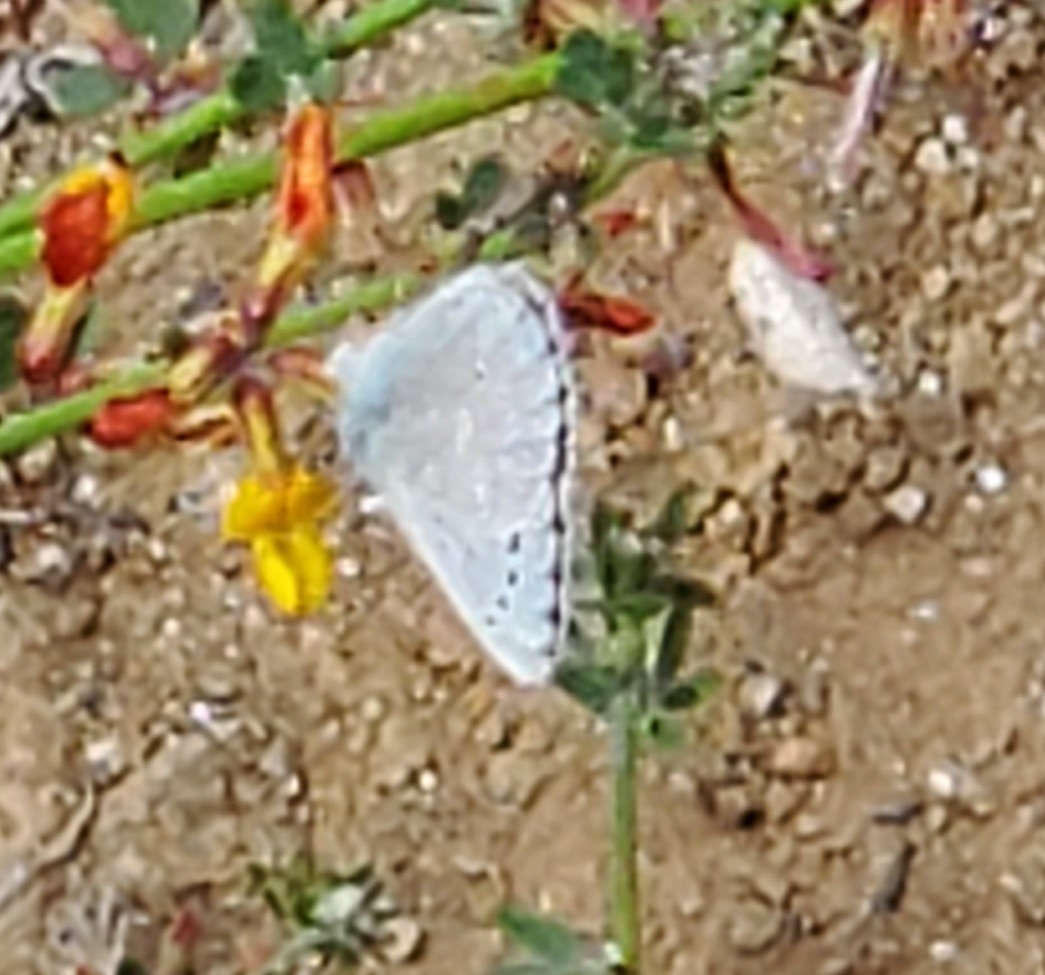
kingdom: Animalia
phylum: Arthropoda
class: Insecta
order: Lepidoptera
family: Lycaenidae
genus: Glaucopsyche
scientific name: Glaucopsyche lygdamus
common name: Silvery blue
